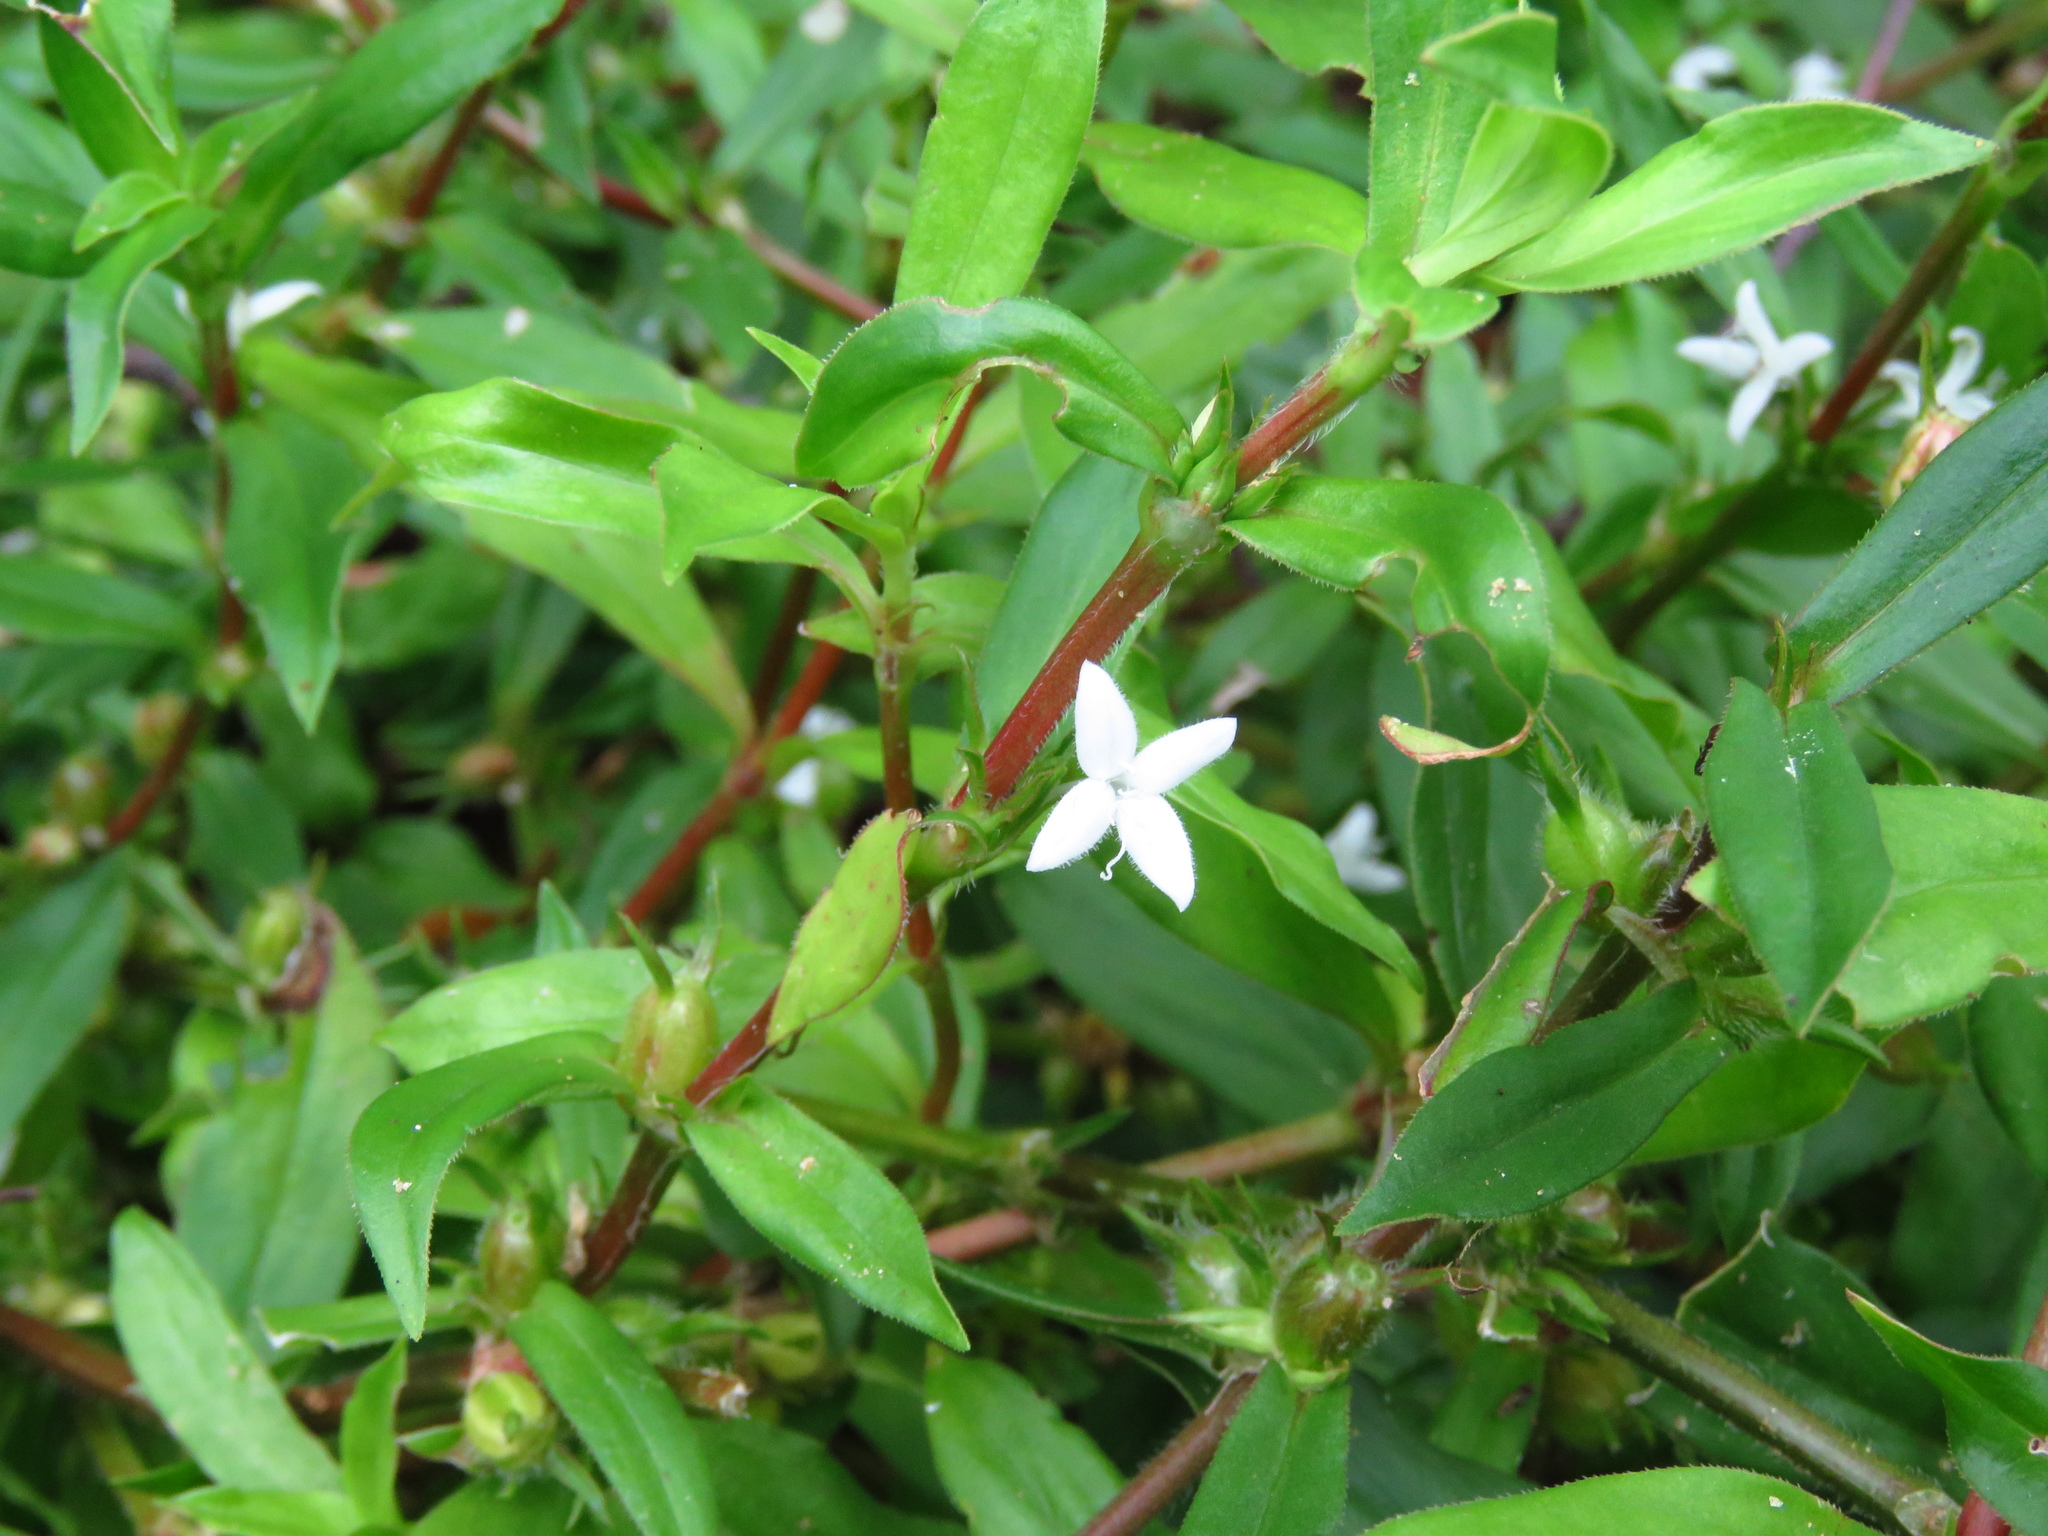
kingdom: Plantae
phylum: Tracheophyta
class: Magnoliopsida
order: Gentianales
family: Rubiaceae
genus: Diodia
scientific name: Diodia virginiana
